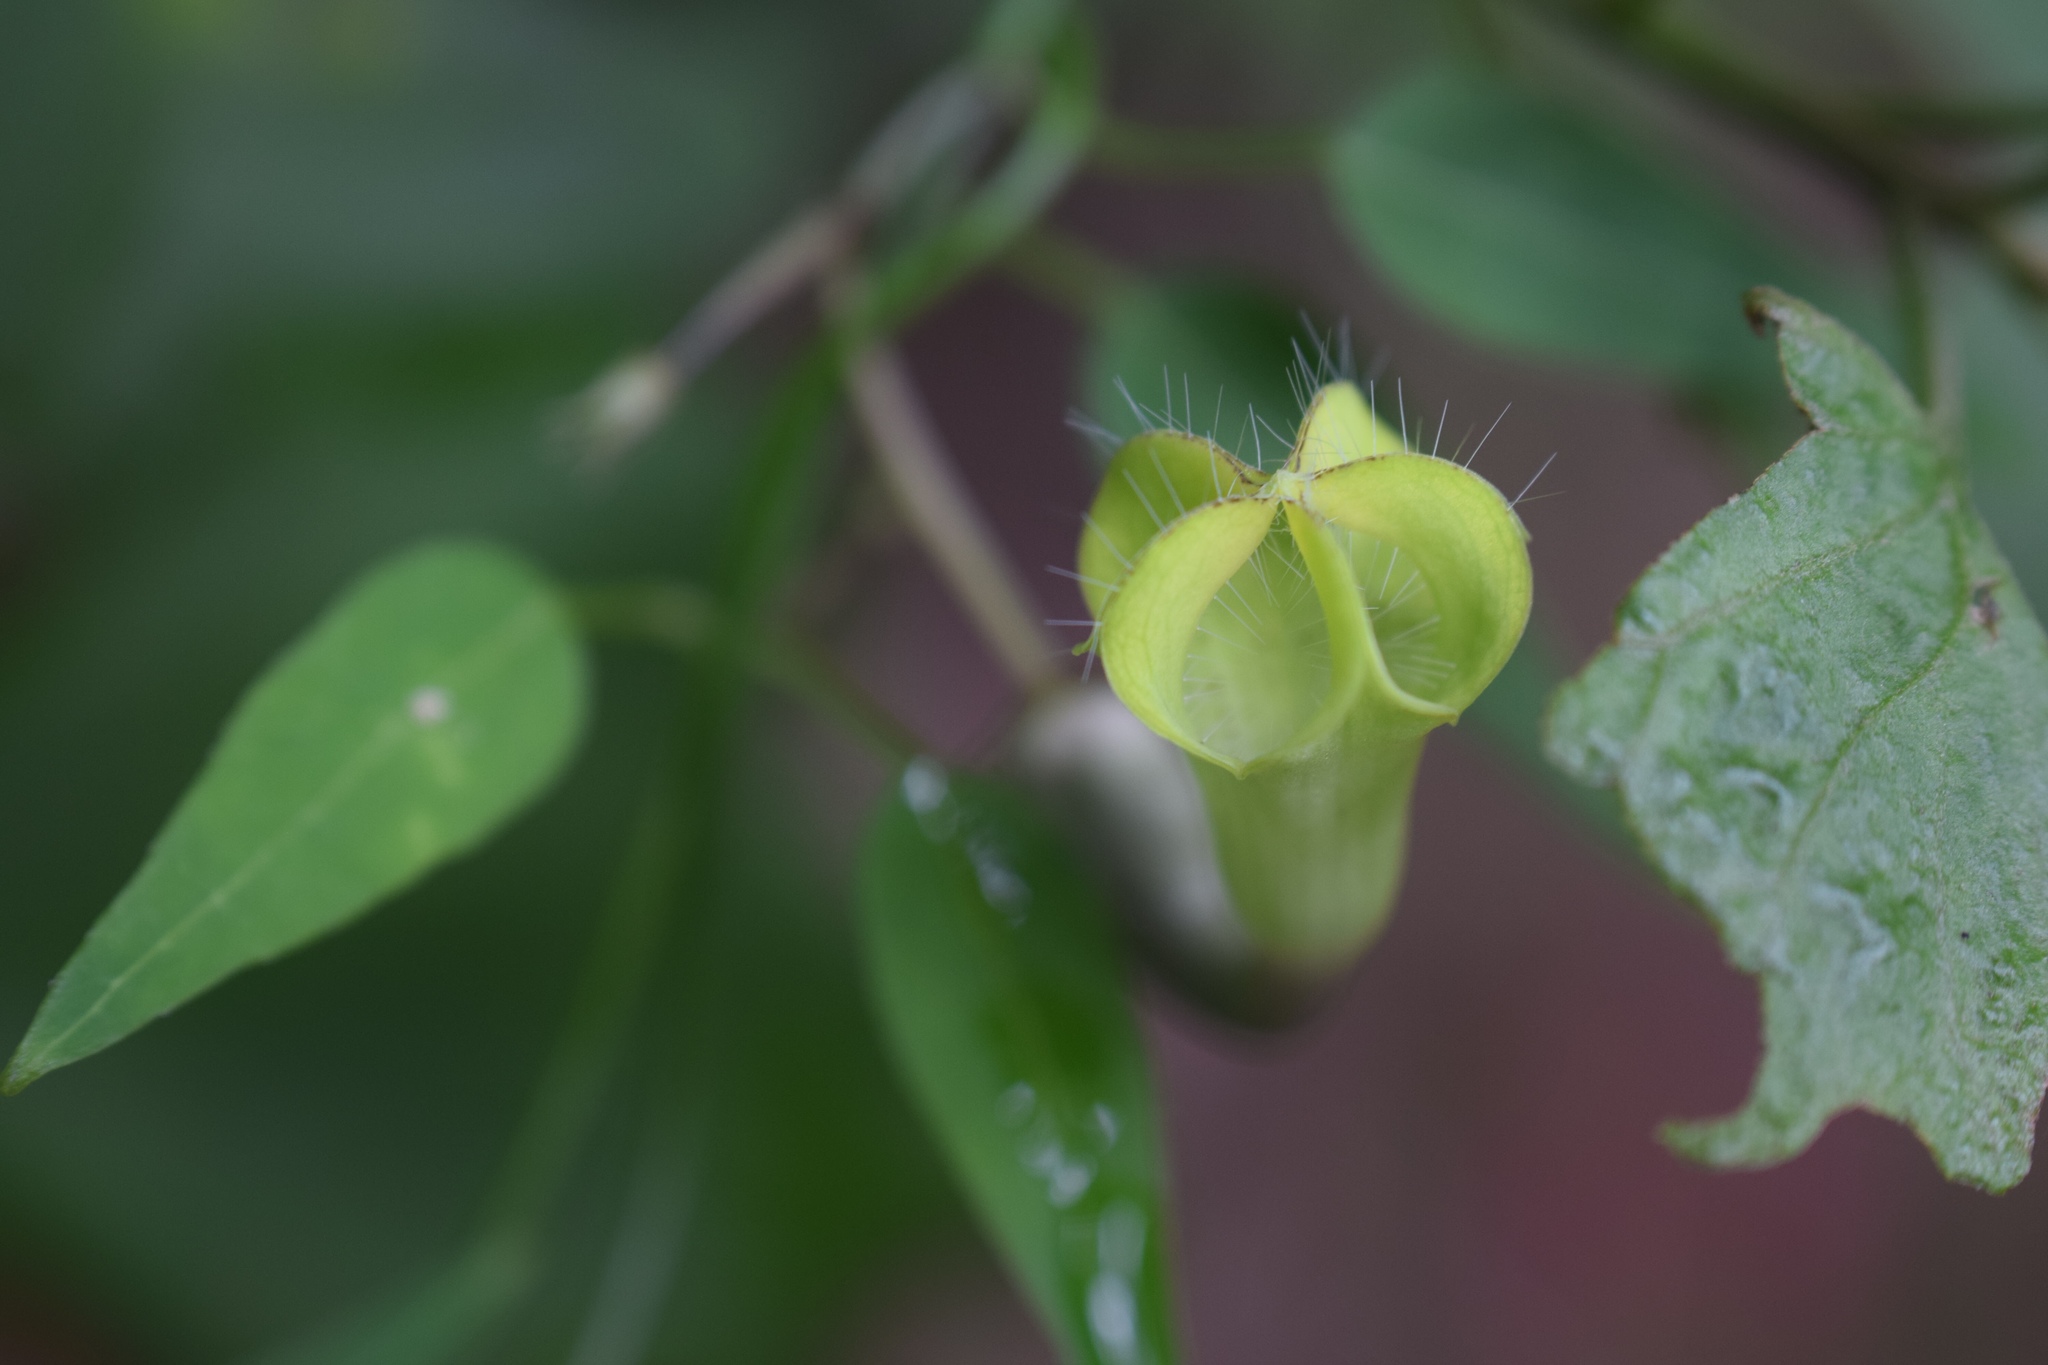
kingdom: Plantae
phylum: Tracheophyta
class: Magnoliopsida
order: Gentianales
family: Apocynaceae
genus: Ceropegia
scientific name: Ceropegia carnosa
